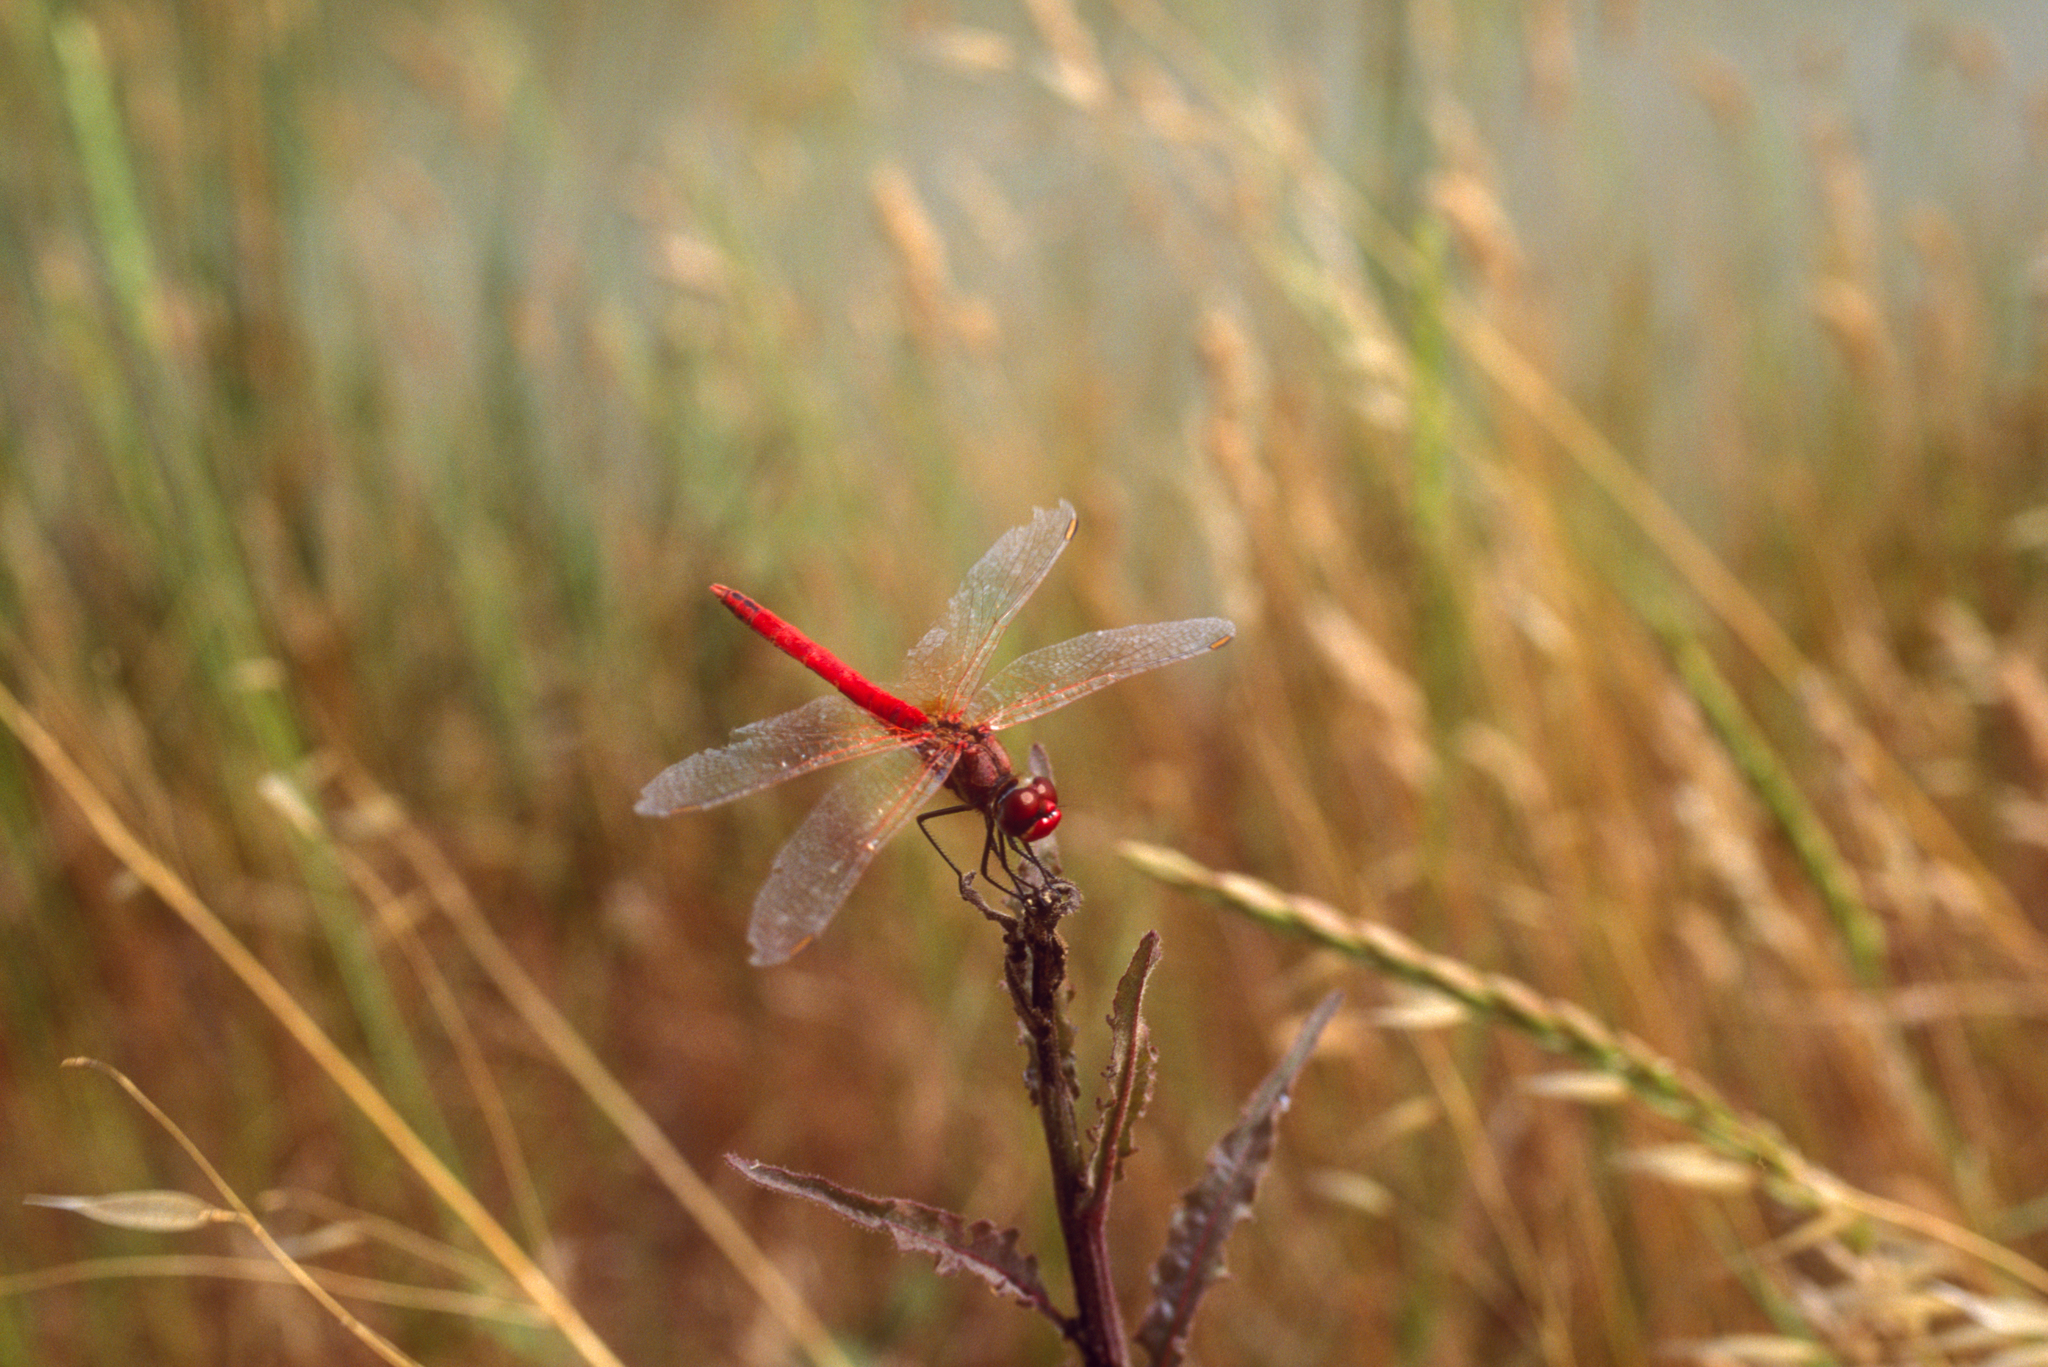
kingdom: Animalia
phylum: Arthropoda
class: Insecta
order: Odonata
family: Libellulidae
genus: Sympetrum
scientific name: Sympetrum fonscolombii
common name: Red-veined darter
